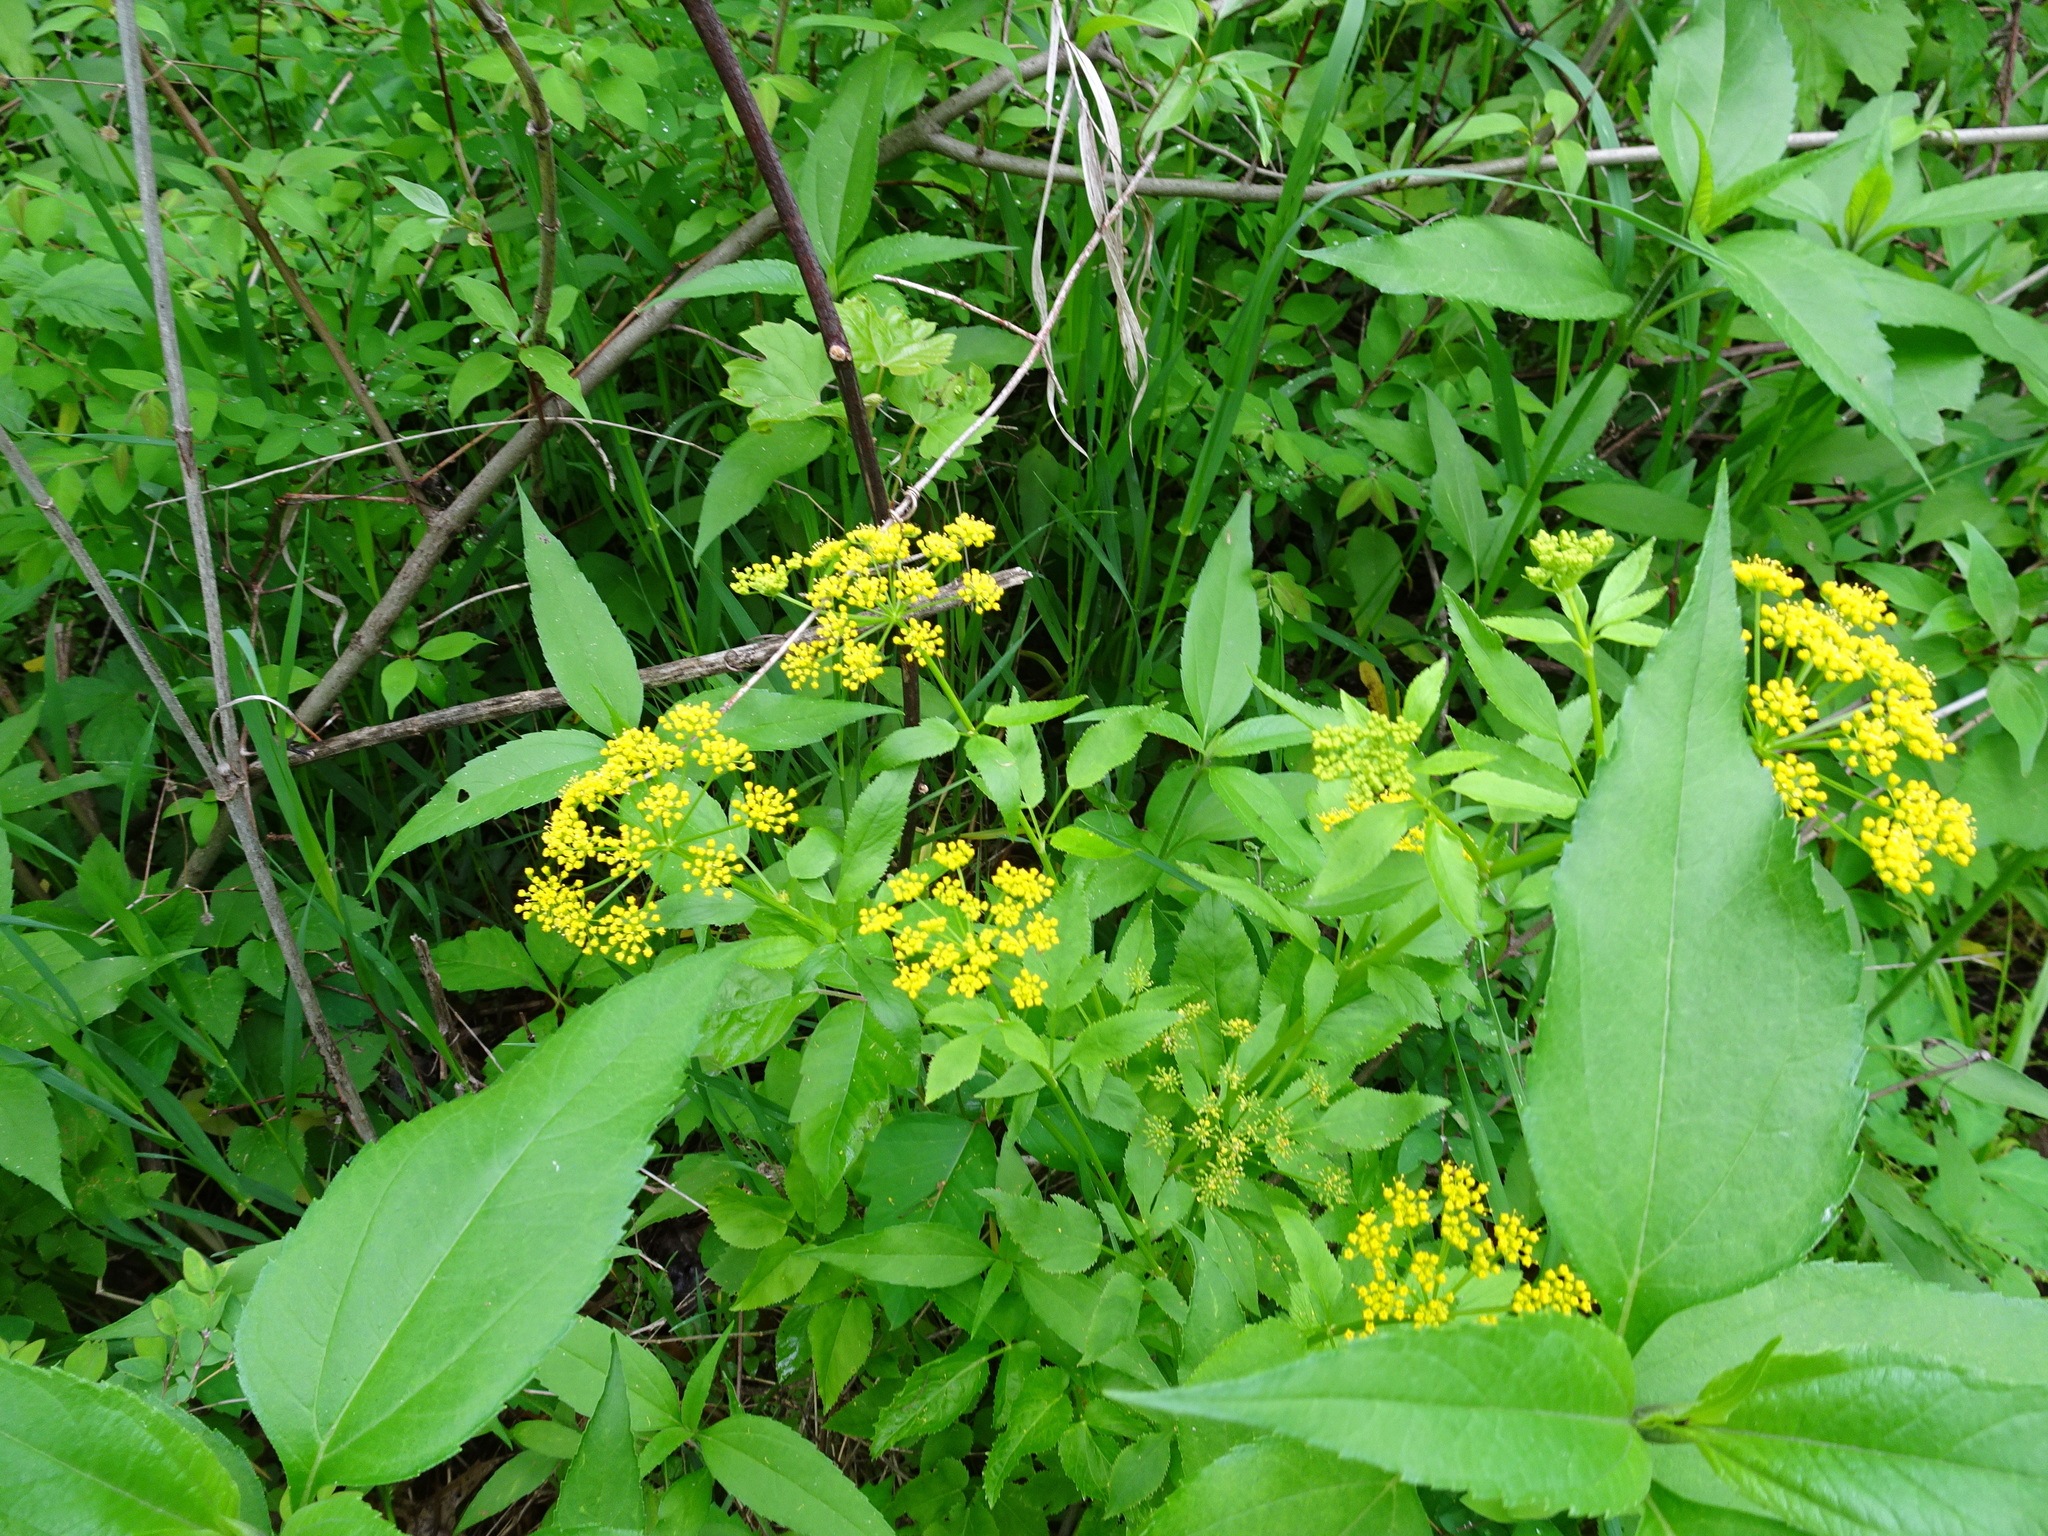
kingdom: Plantae
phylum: Tracheophyta
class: Magnoliopsida
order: Apiales
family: Apiaceae
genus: Zizia
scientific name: Zizia aurea
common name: Golden alexanders
